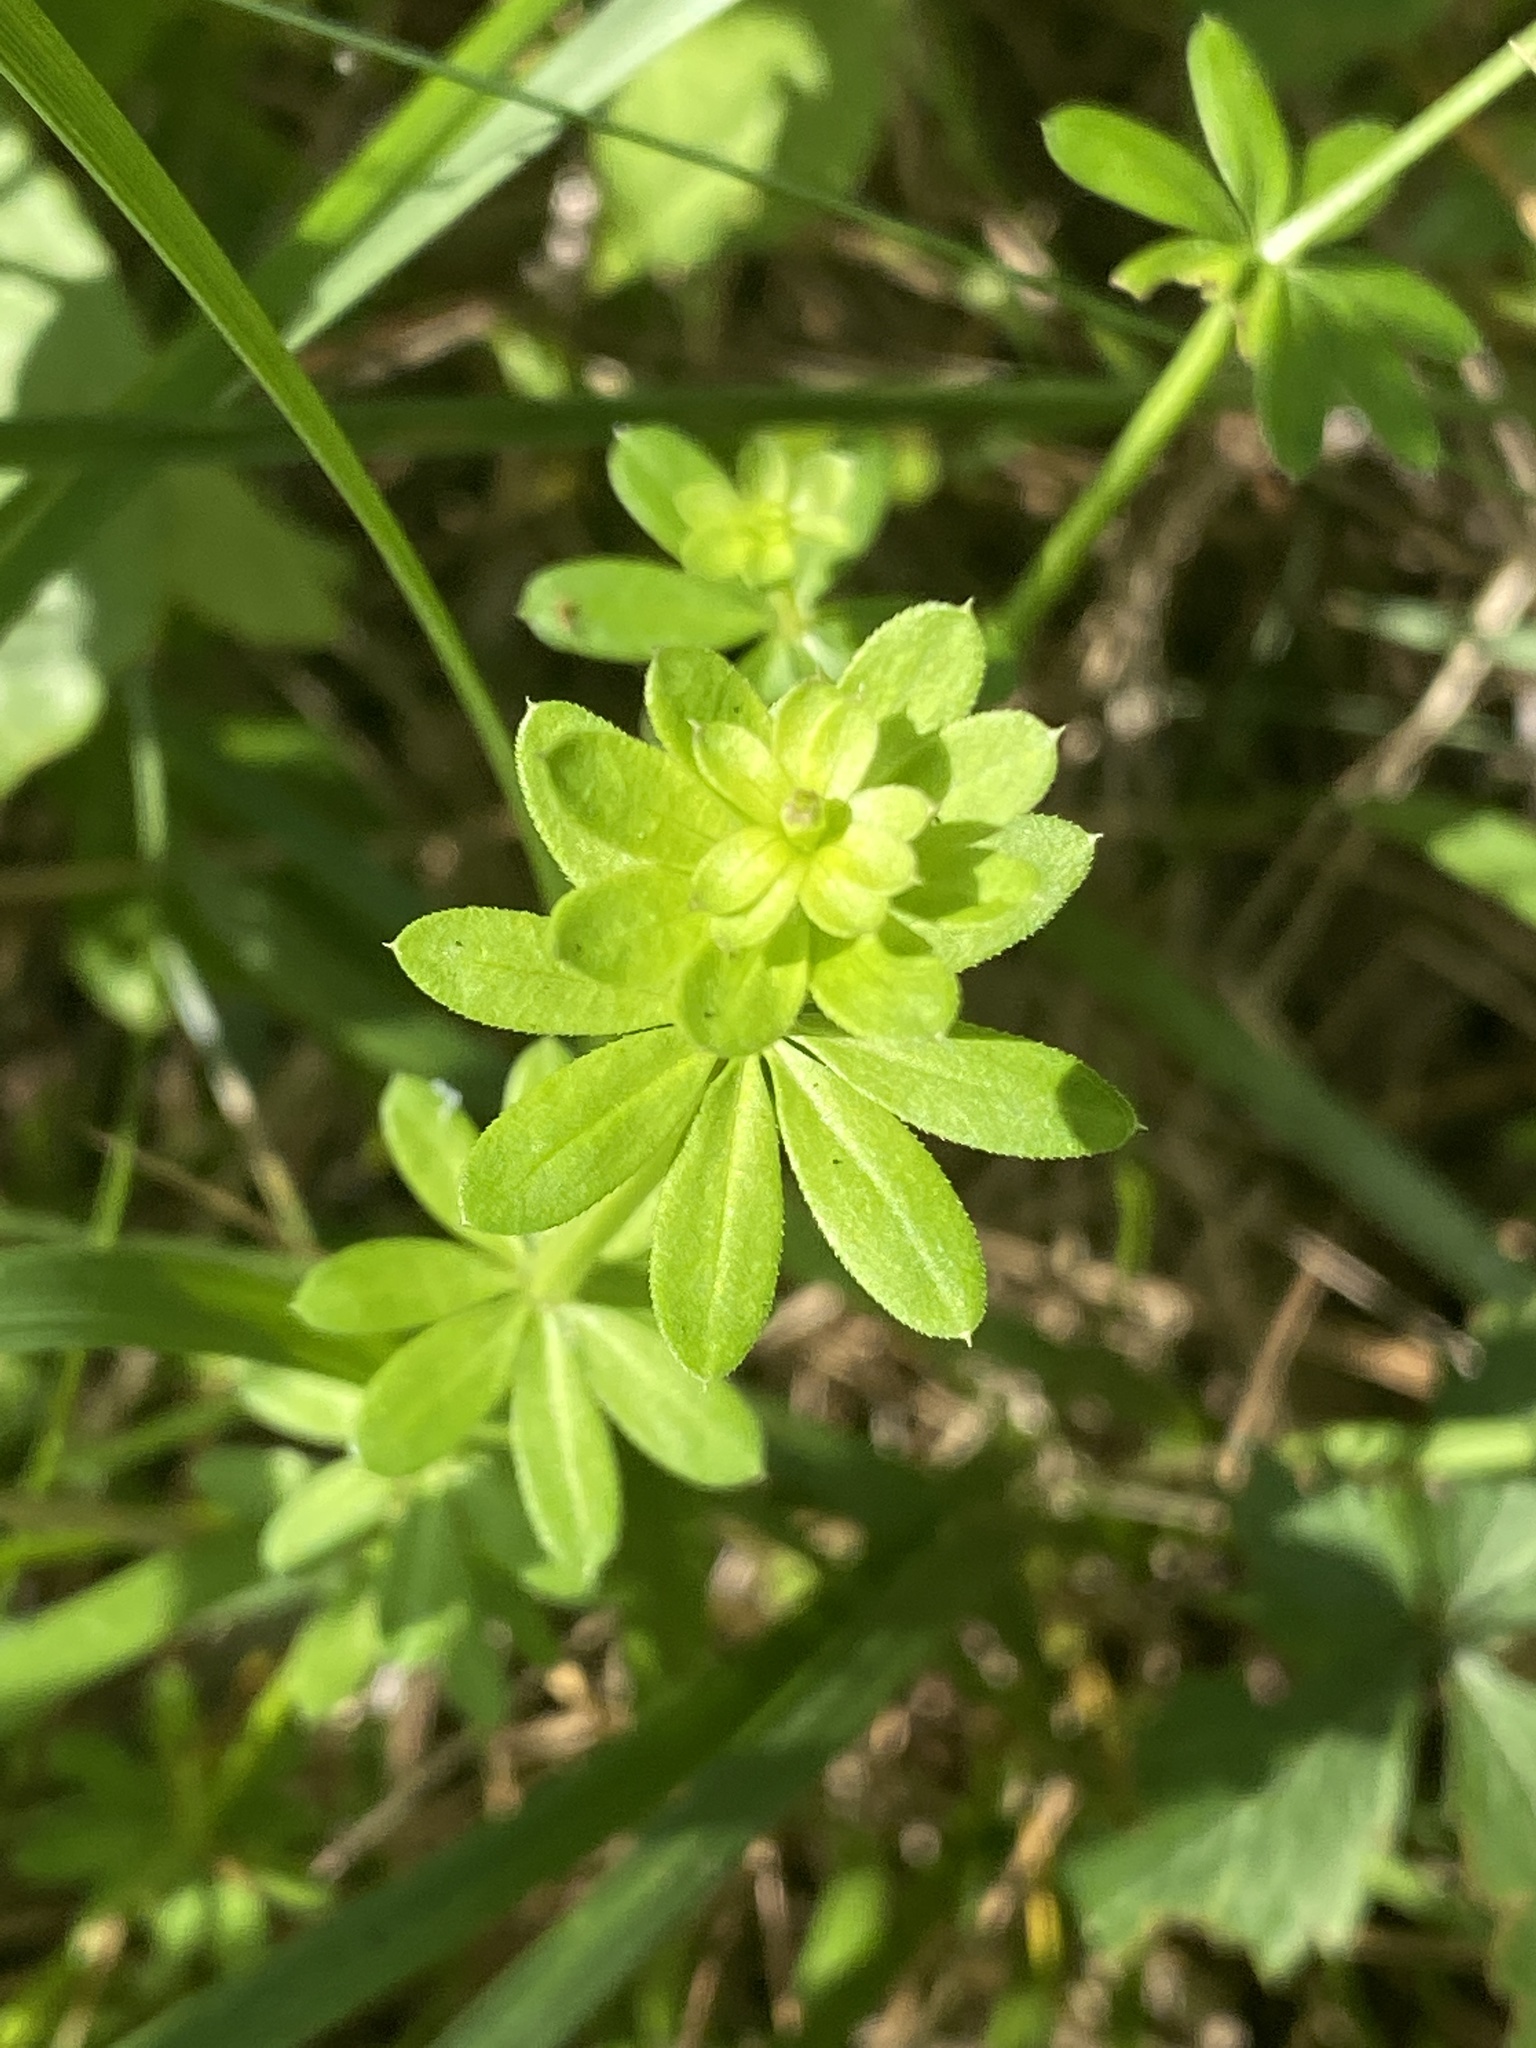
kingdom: Plantae
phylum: Tracheophyta
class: Magnoliopsida
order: Gentianales
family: Rubiaceae
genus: Galium
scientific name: Galium mollugo
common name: Hedge bedstraw
